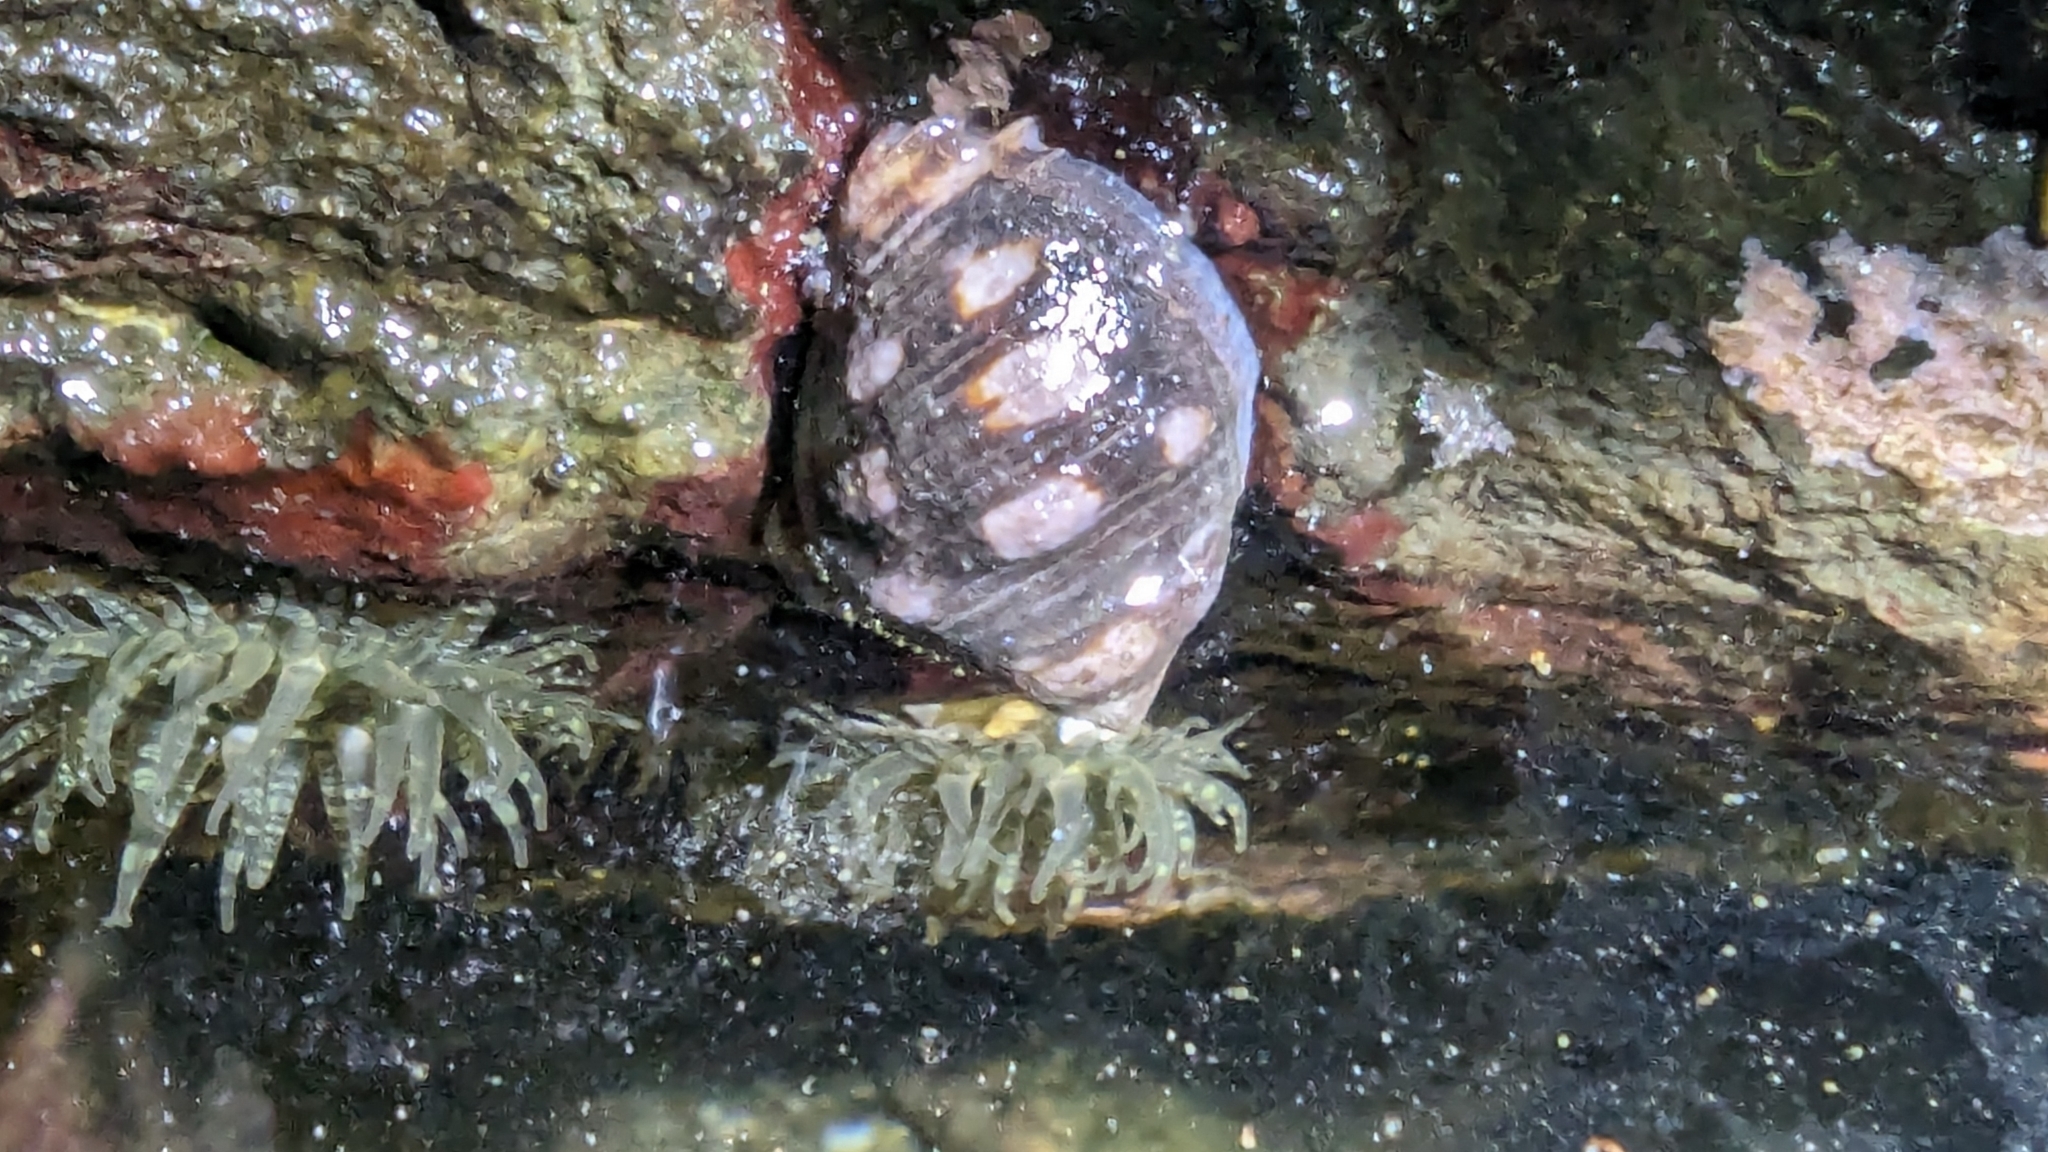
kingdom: Animalia
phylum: Mollusca
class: Gastropoda
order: Neogastropoda
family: Muricidae
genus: Acanthais
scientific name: Acanthais brevidentata
